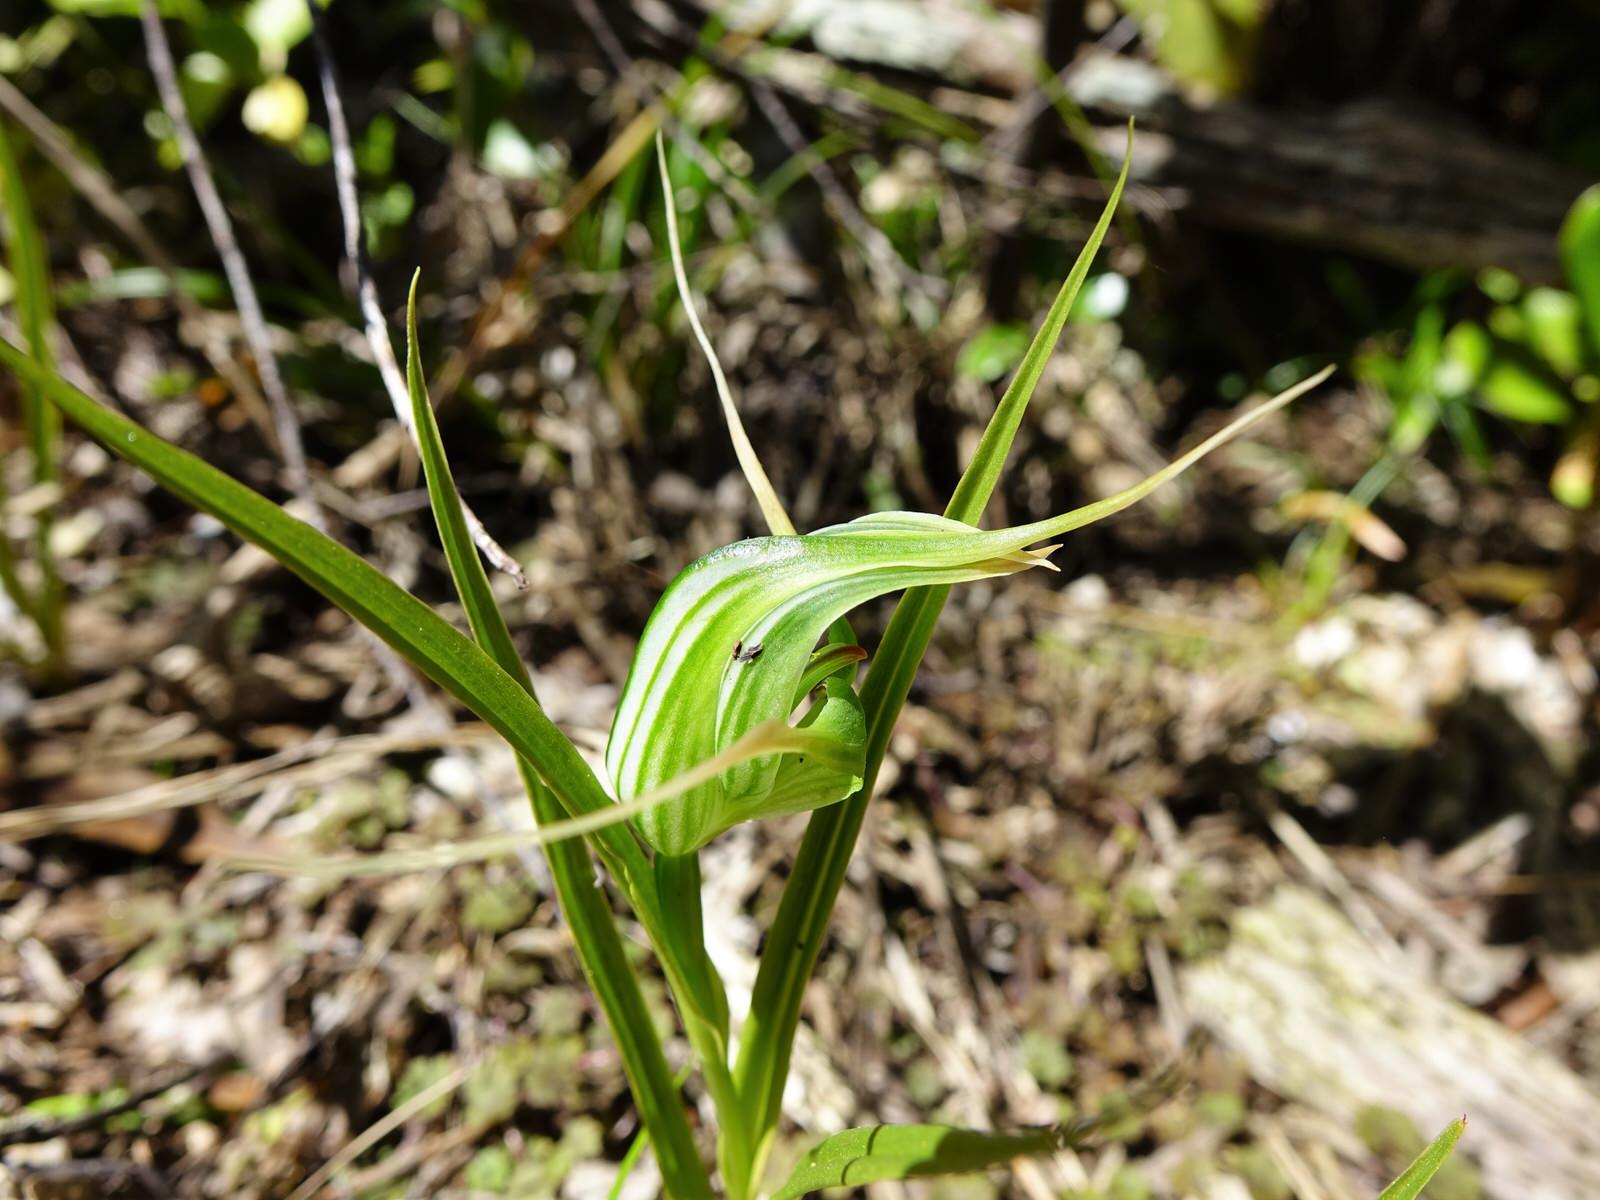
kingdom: Plantae
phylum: Tracheophyta
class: Liliopsida
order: Asparagales
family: Orchidaceae
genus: Pterostylis
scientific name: Pterostylis banksii
